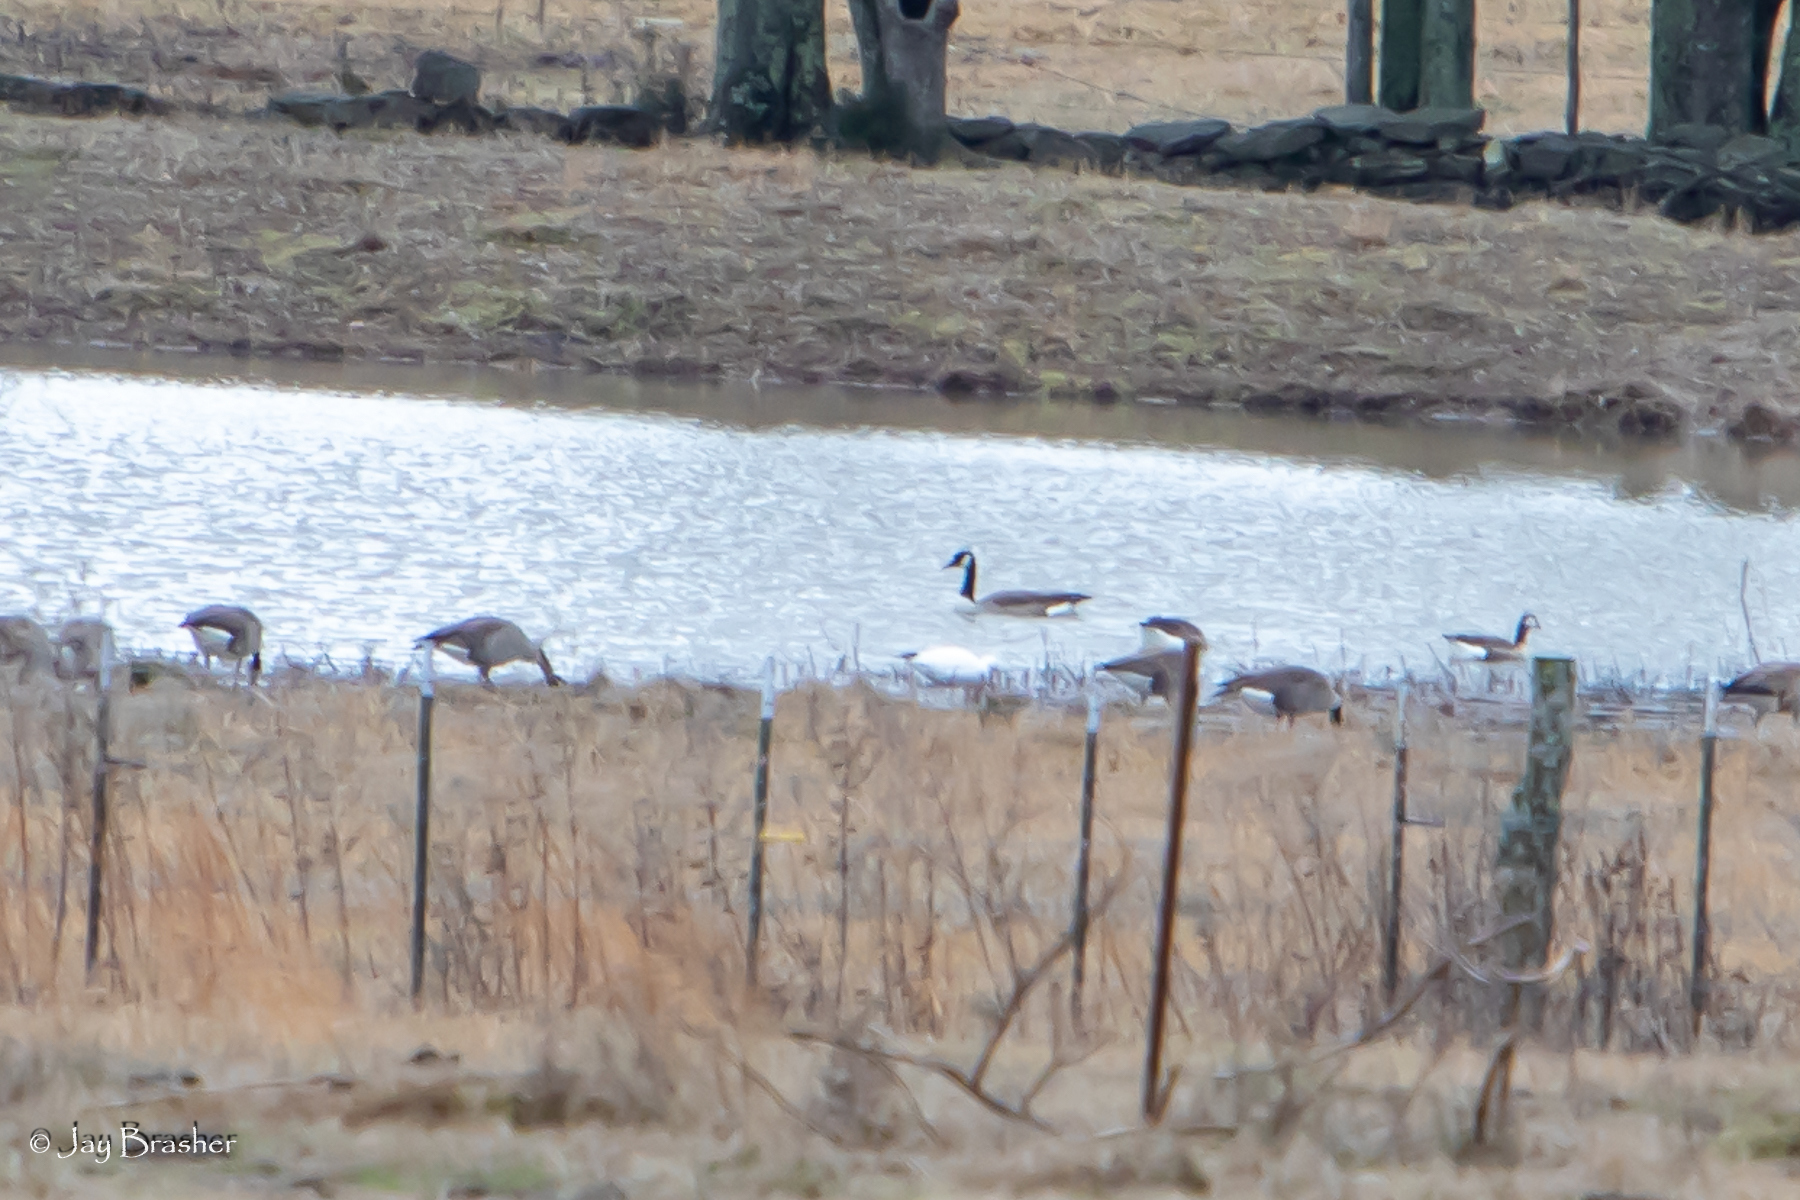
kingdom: Animalia
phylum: Chordata
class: Aves
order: Anseriformes
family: Anatidae
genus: Branta
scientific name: Branta canadensis
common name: Canada goose
